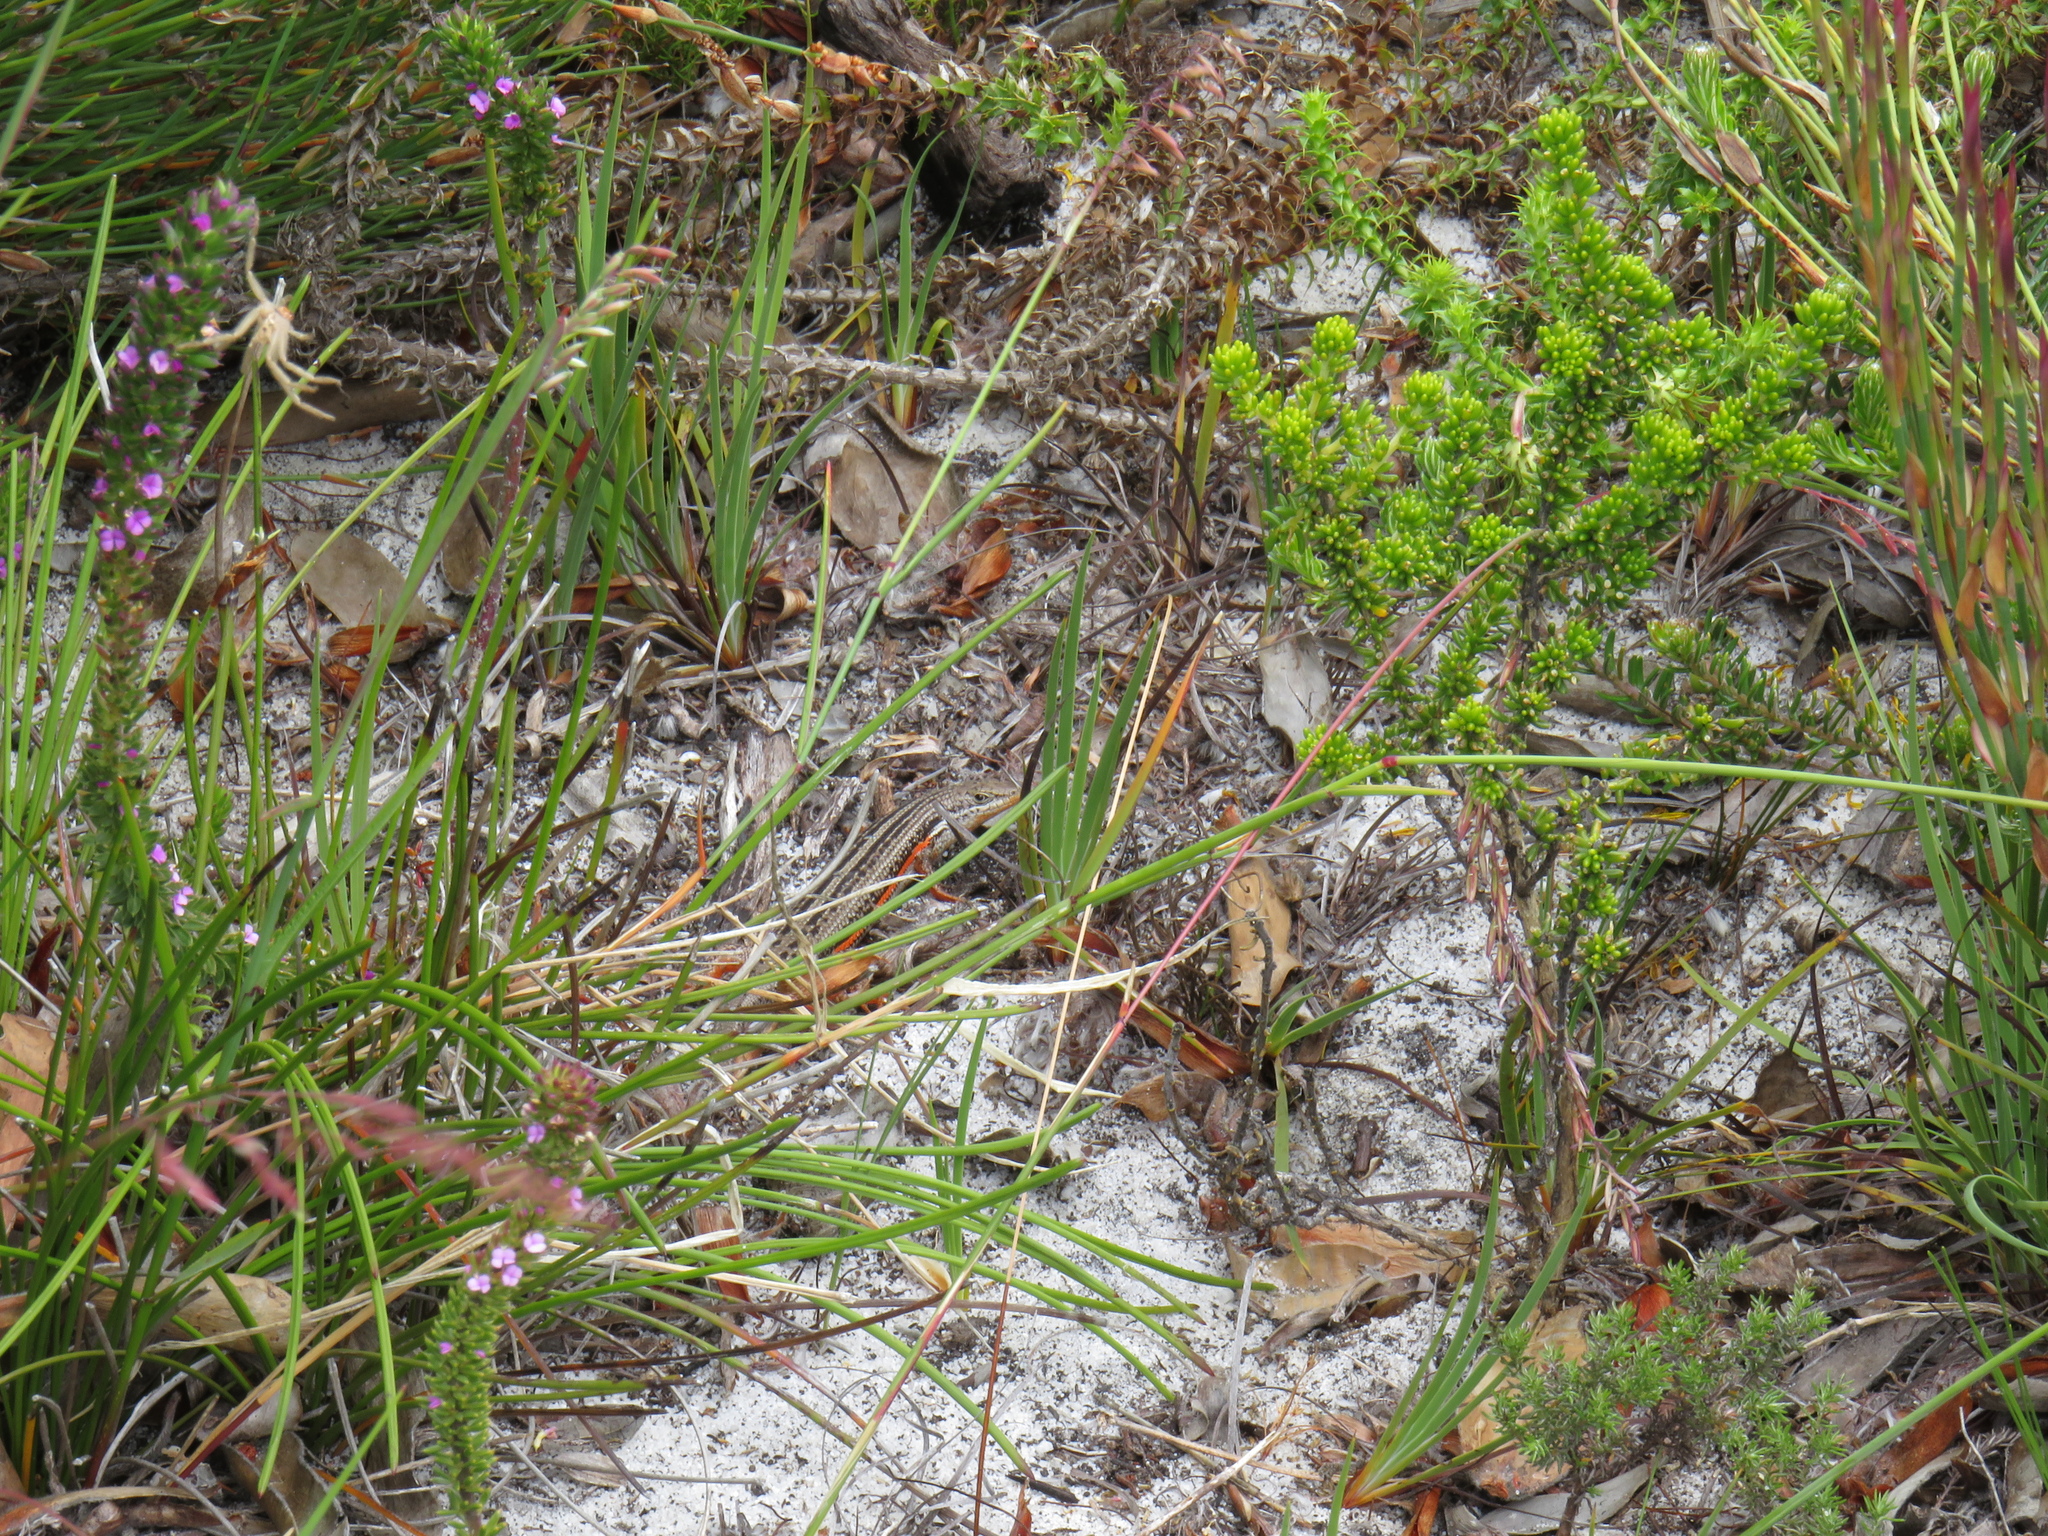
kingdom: Animalia
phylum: Chordata
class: Squamata
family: Scincidae
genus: Trachylepis
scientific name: Trachylepis homalocephala
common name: Red-sided skink
